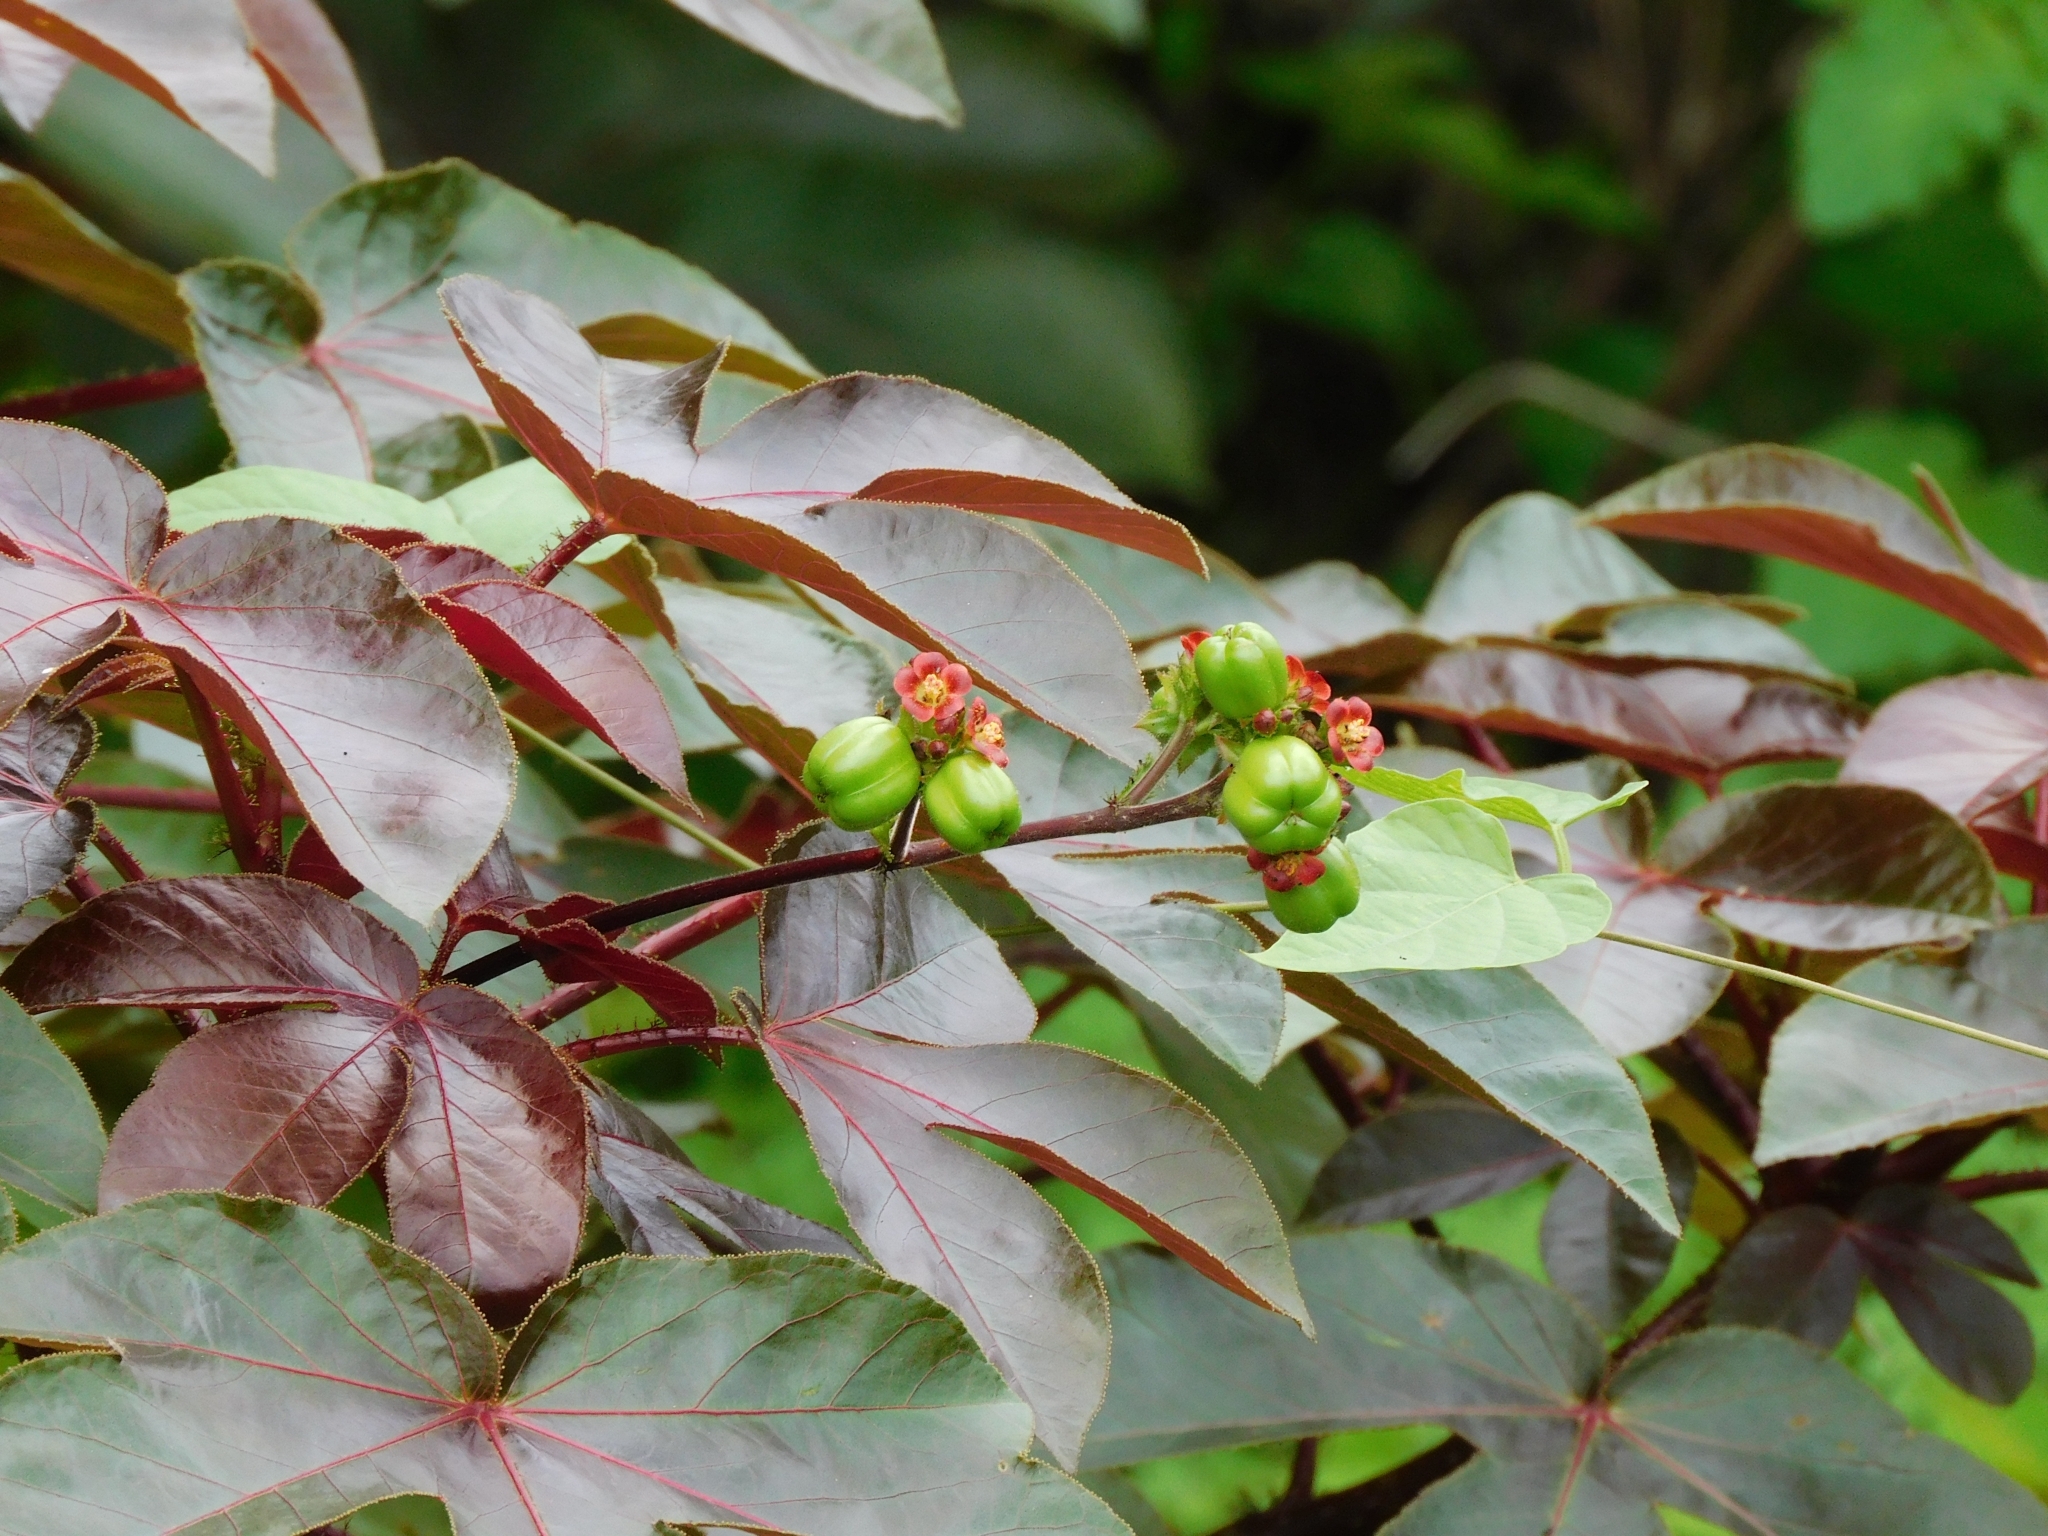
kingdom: Plantae
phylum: Tracheophyta
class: Magnoliopsida
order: Malpighiales
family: Euphorbiaceae
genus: Jatropha
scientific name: Jatropha gossypiifolia
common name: Bellyache bush
